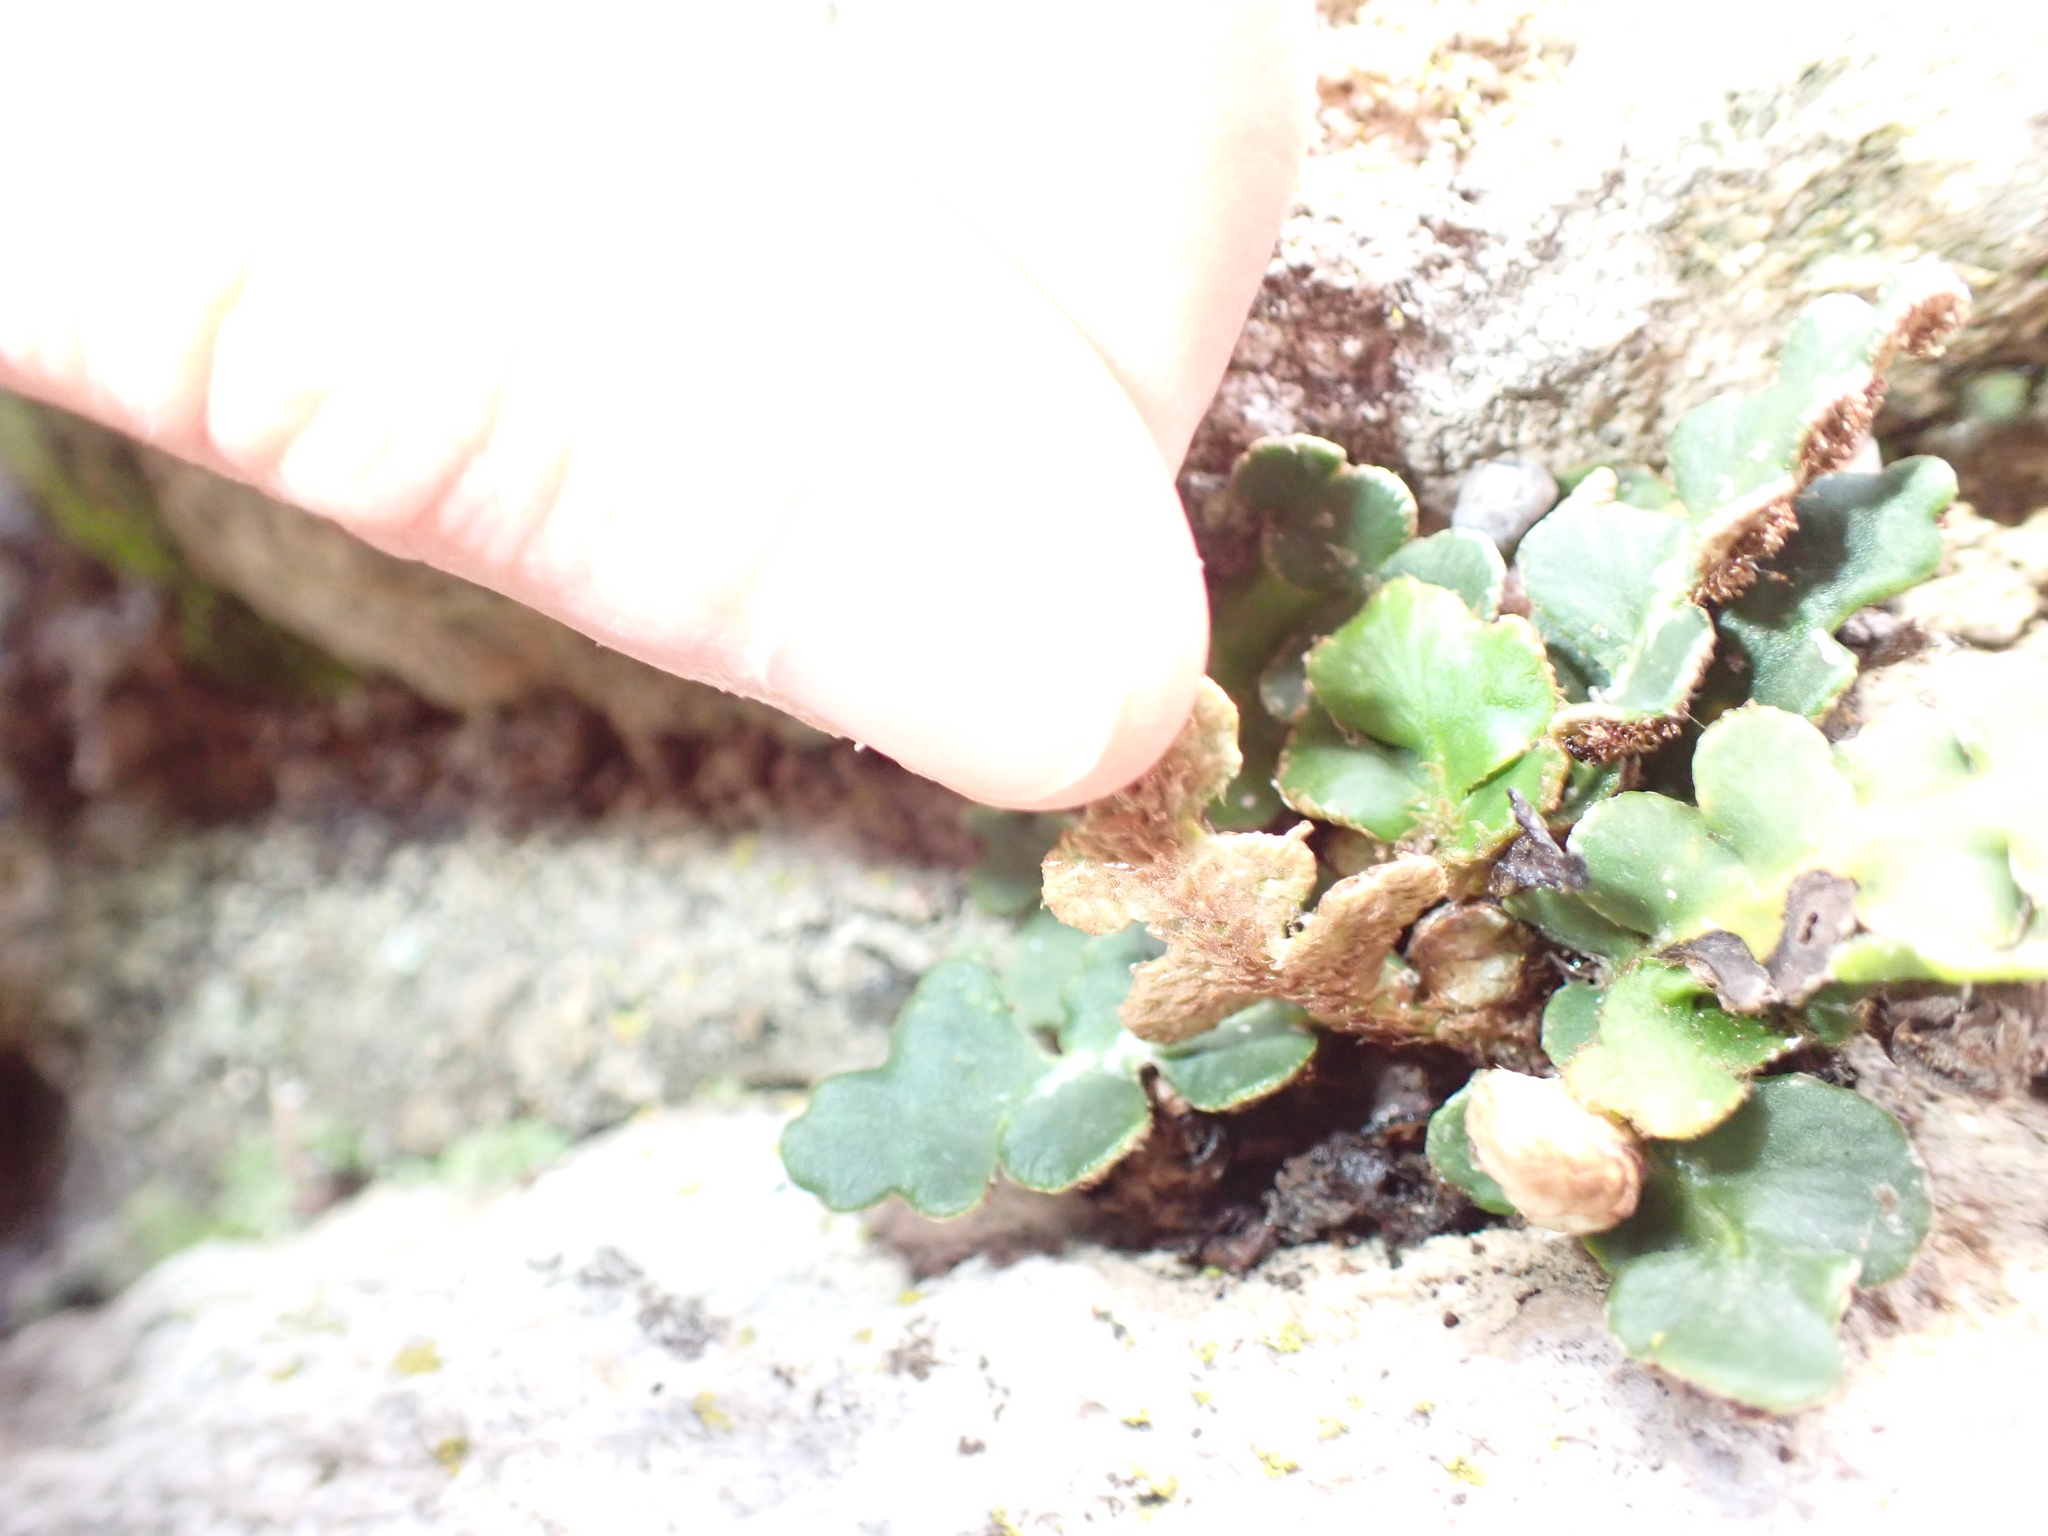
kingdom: Plantae
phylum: Tracheophyta
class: Polypodiopsida
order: Polypodiales
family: Aspleniaceae
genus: Asplenium
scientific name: Asplenium ceterach
